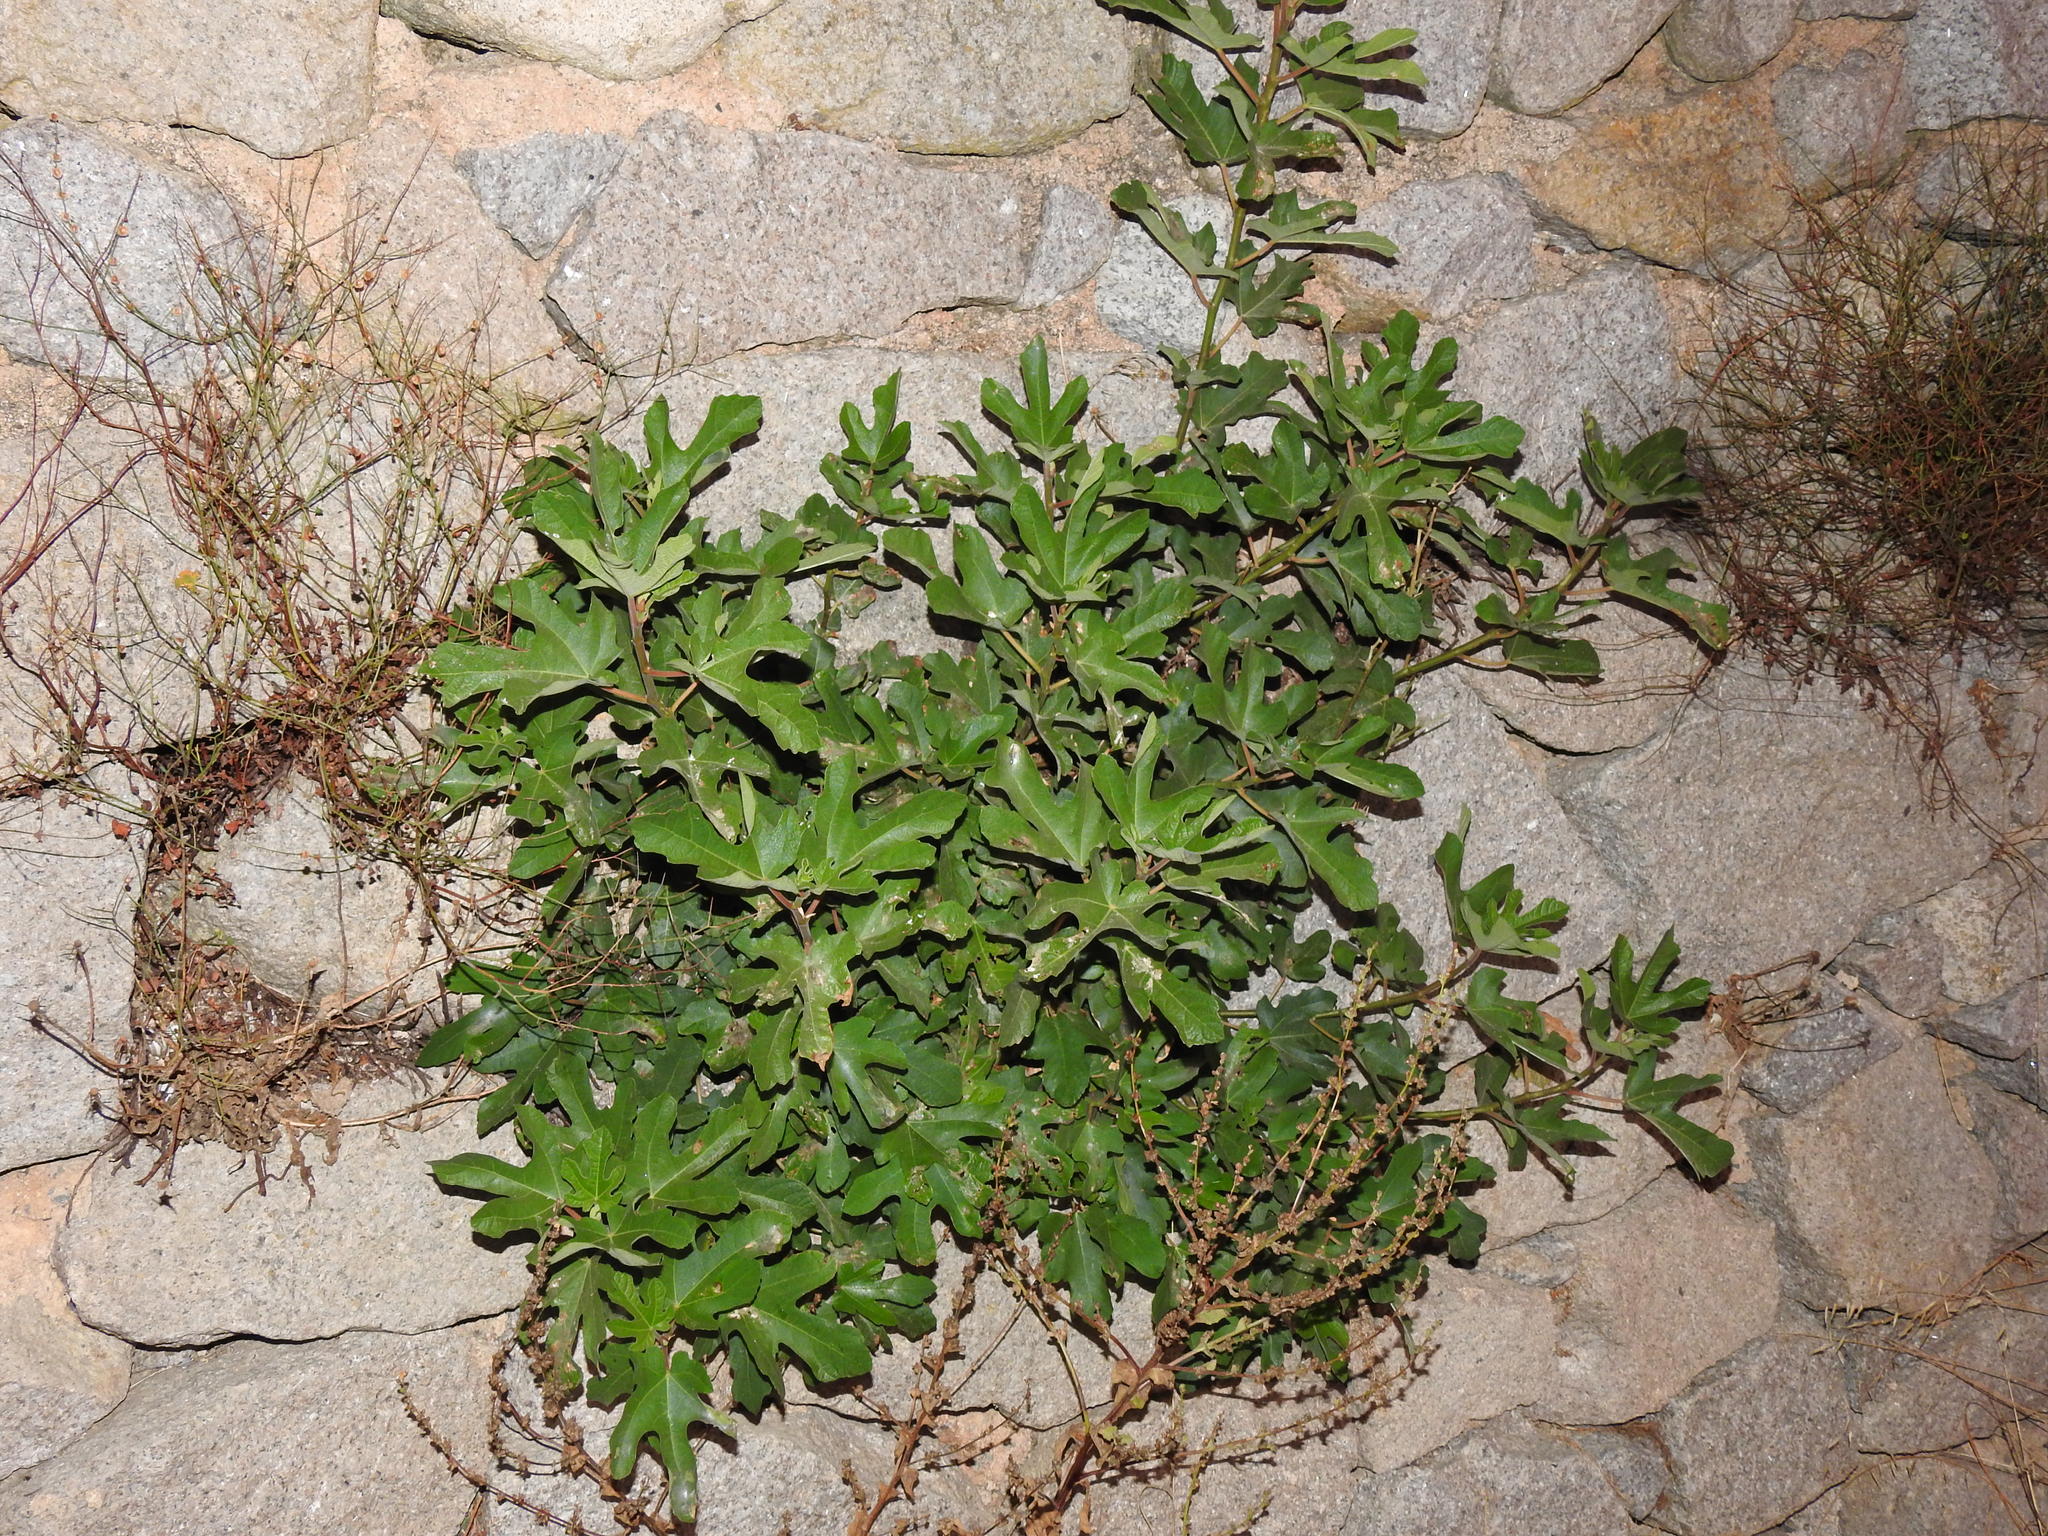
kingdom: Plantae
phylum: Tracheophyta
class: Magnoliopsida
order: Rosales
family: Moraceae
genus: Ficus
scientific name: Ficus carica
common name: Fig
